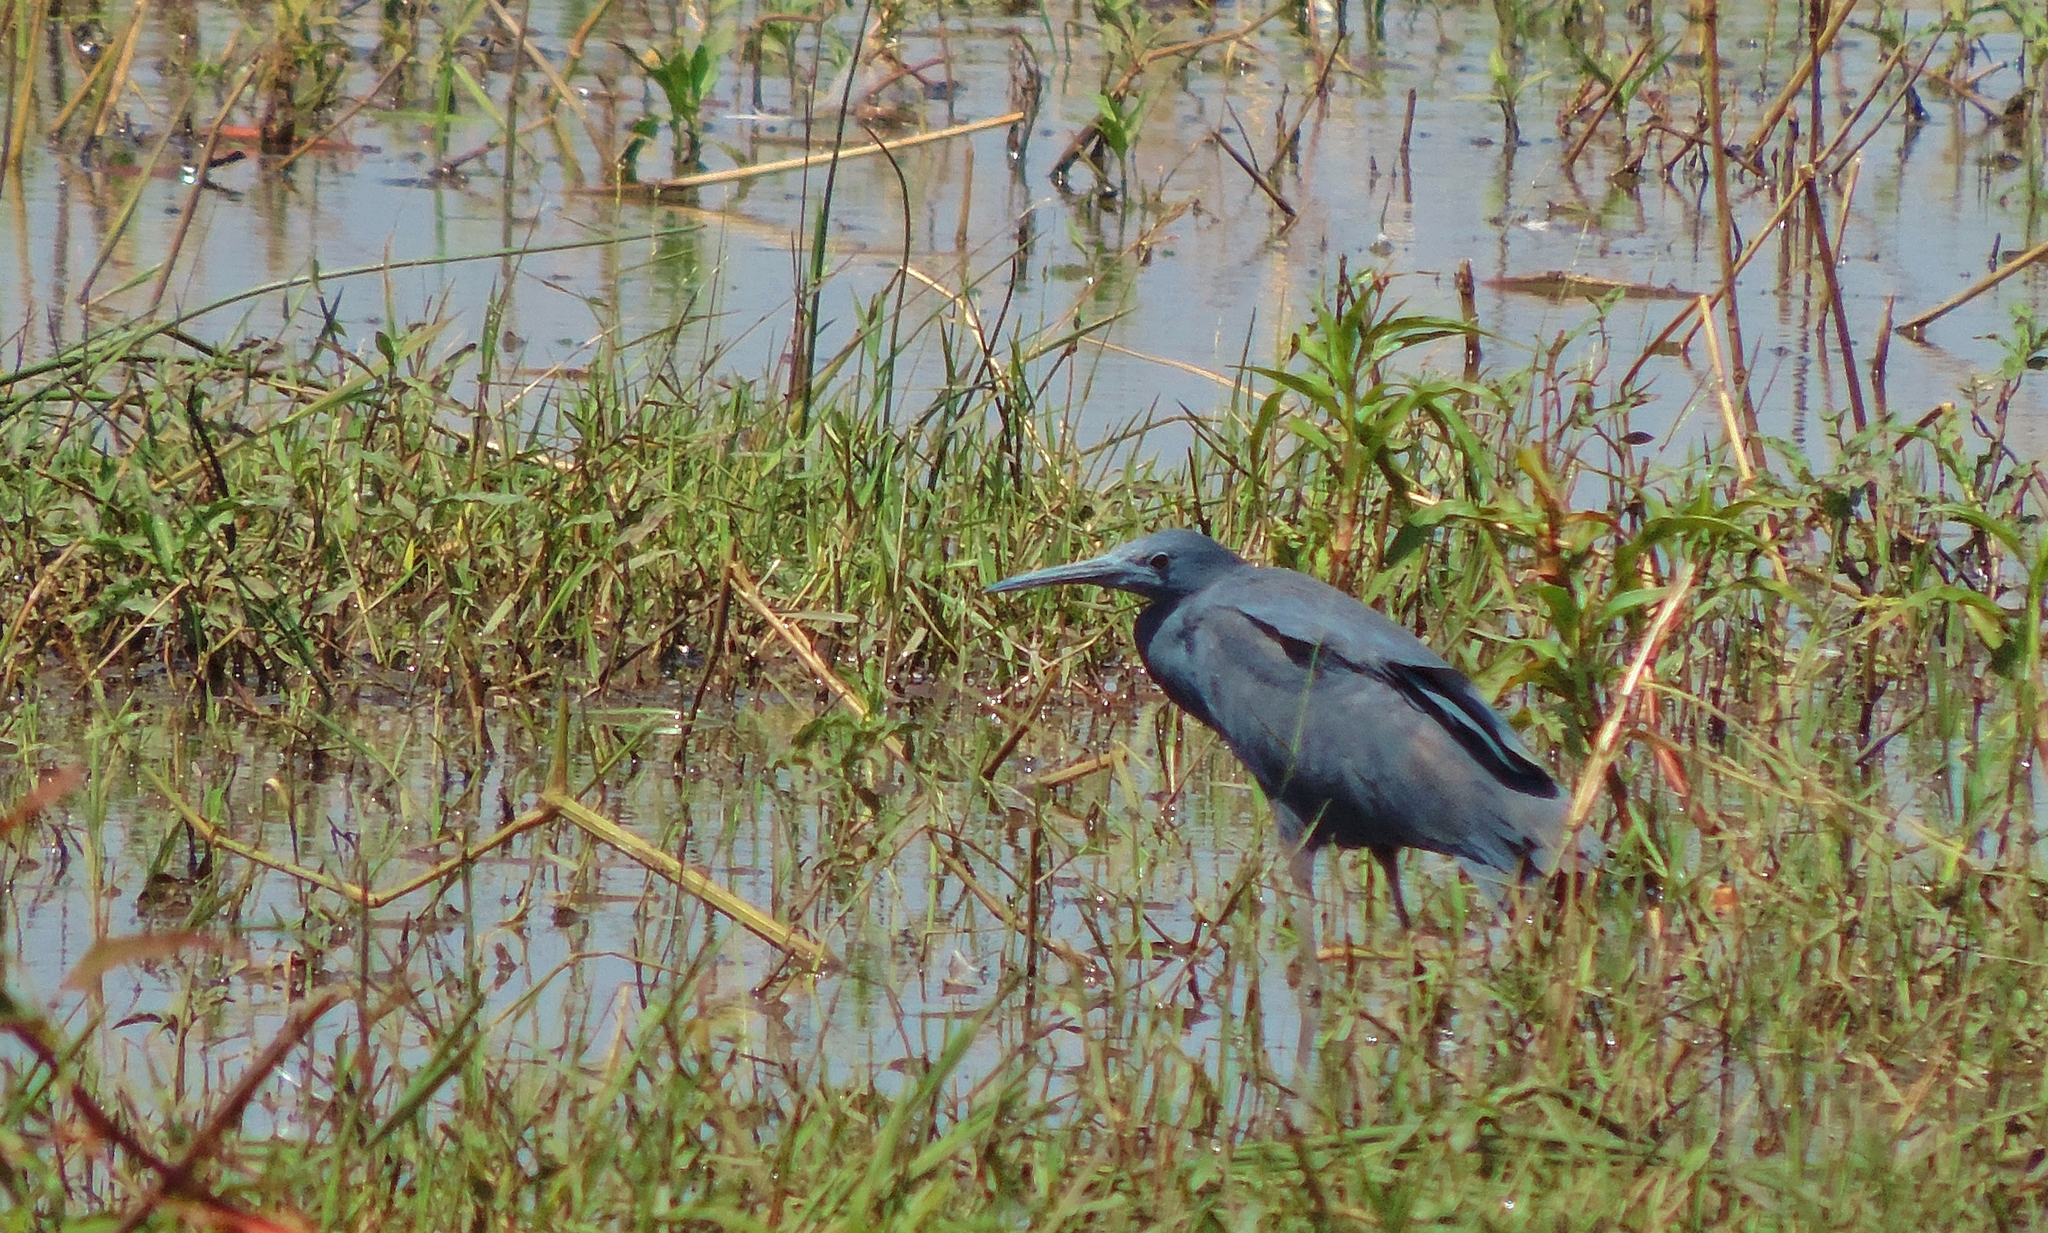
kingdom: Animalia
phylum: Chordata
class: Aves
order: Pelecaniformes
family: Ardeidae
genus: Egretta
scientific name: Egretta ardesiaca
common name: Black heron
